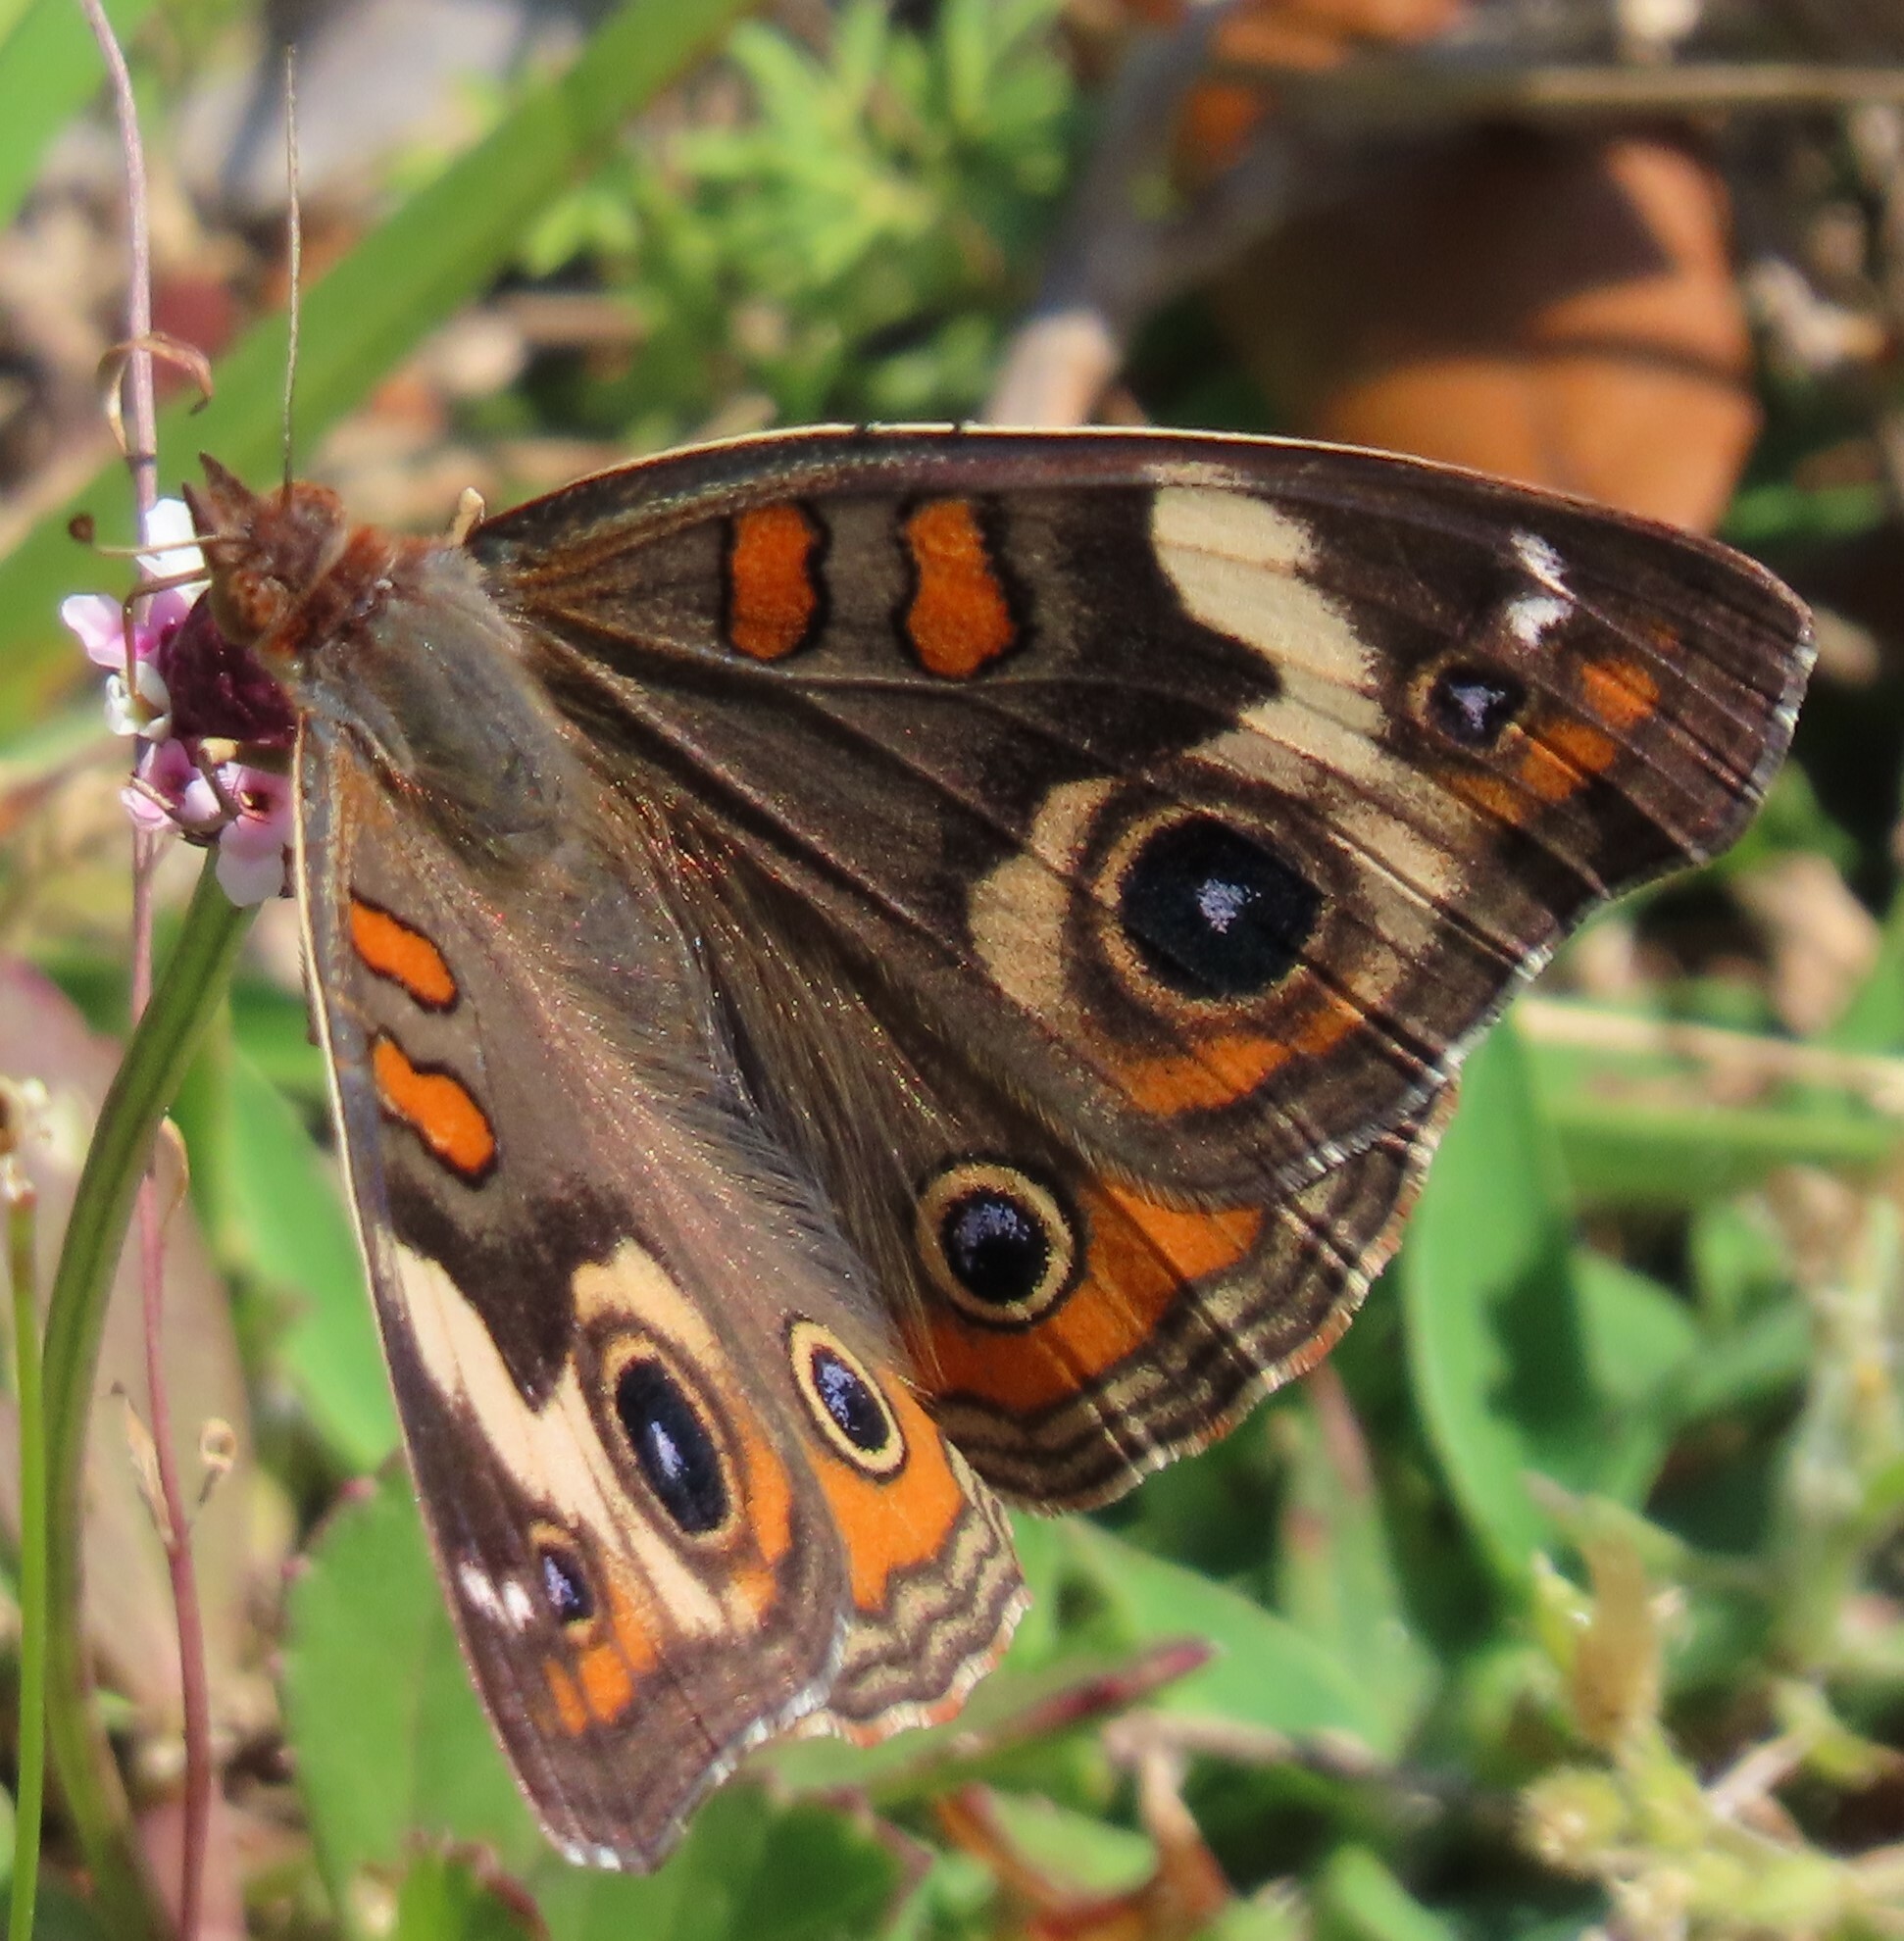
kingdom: Animalia
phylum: Arthropoda
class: Insecta
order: Lepidoptera
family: Nymphalidae
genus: Junonia
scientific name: Junonia coenia
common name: Common buckeye
